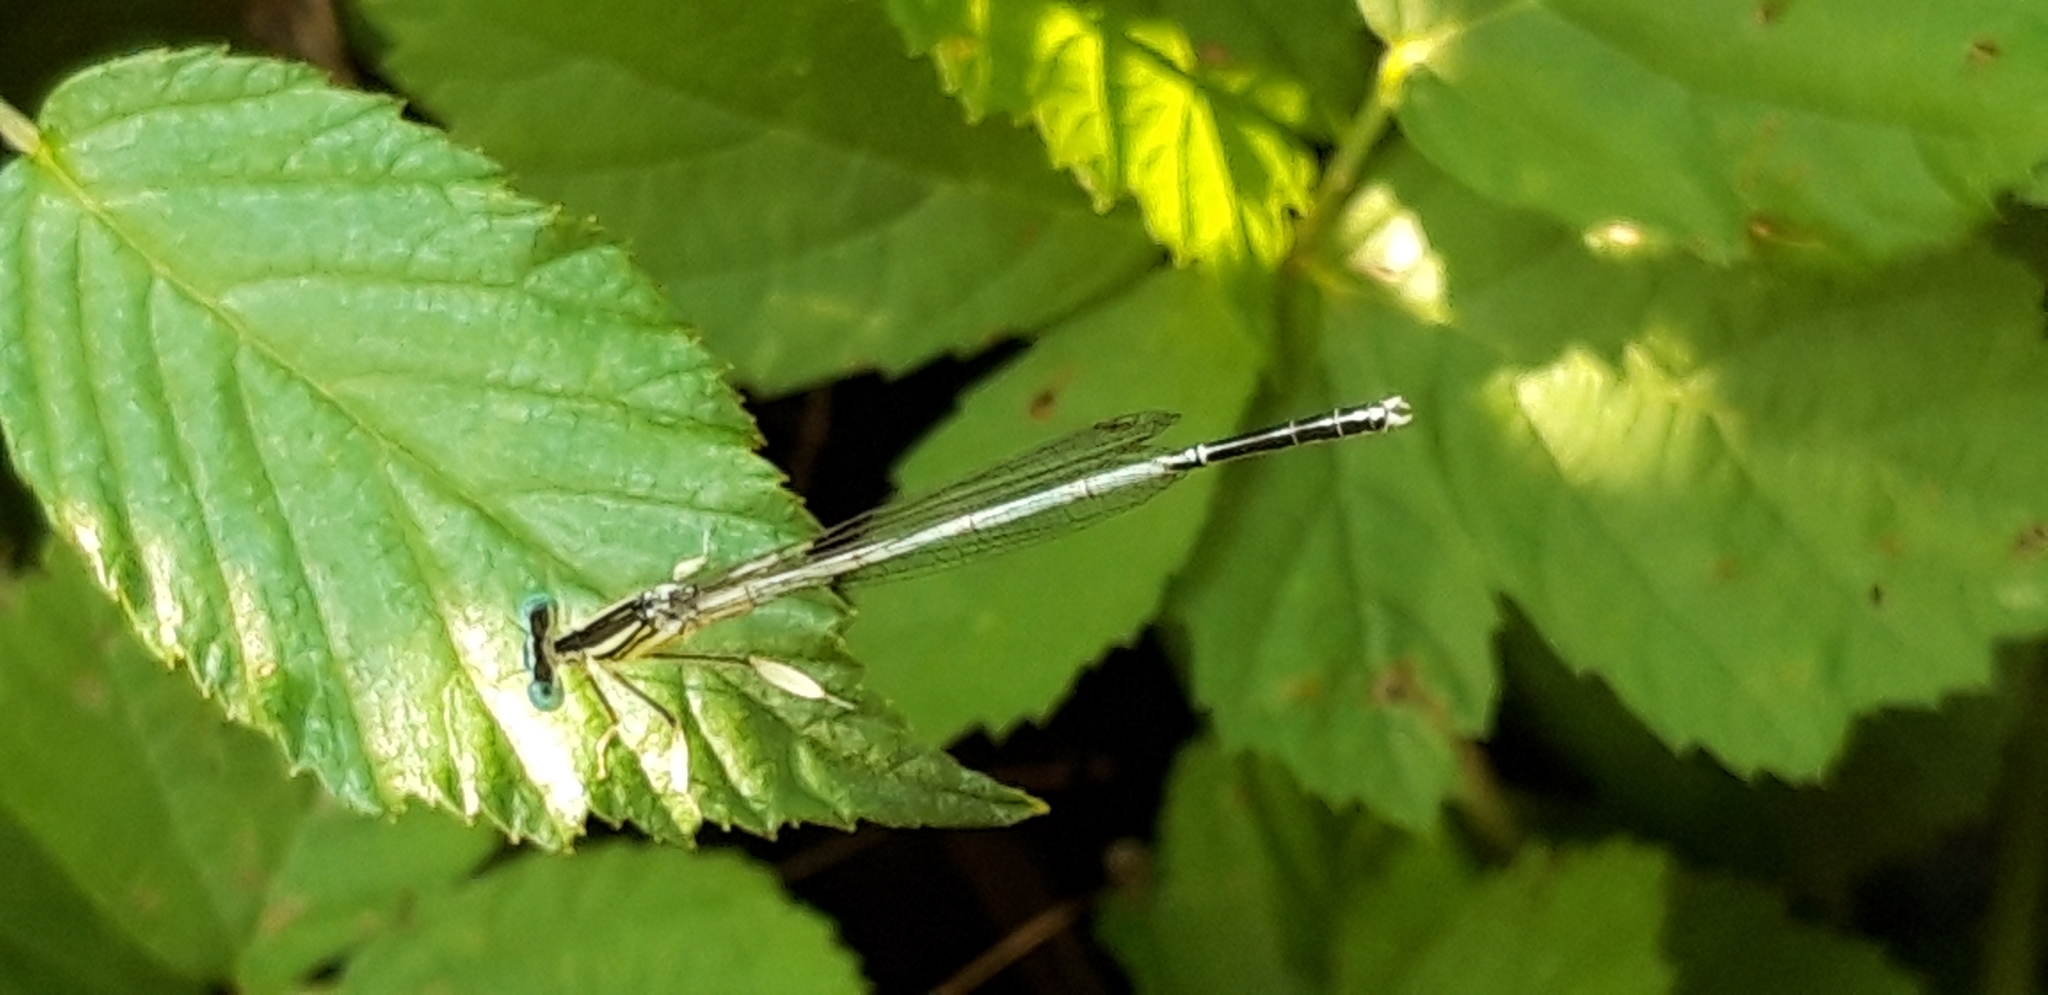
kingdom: Animalia
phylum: Arthropoda
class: Insecta
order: Odonata
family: Platycnemididae
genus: Platycnemis
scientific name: Platycnemis latipes
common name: White featherleg
